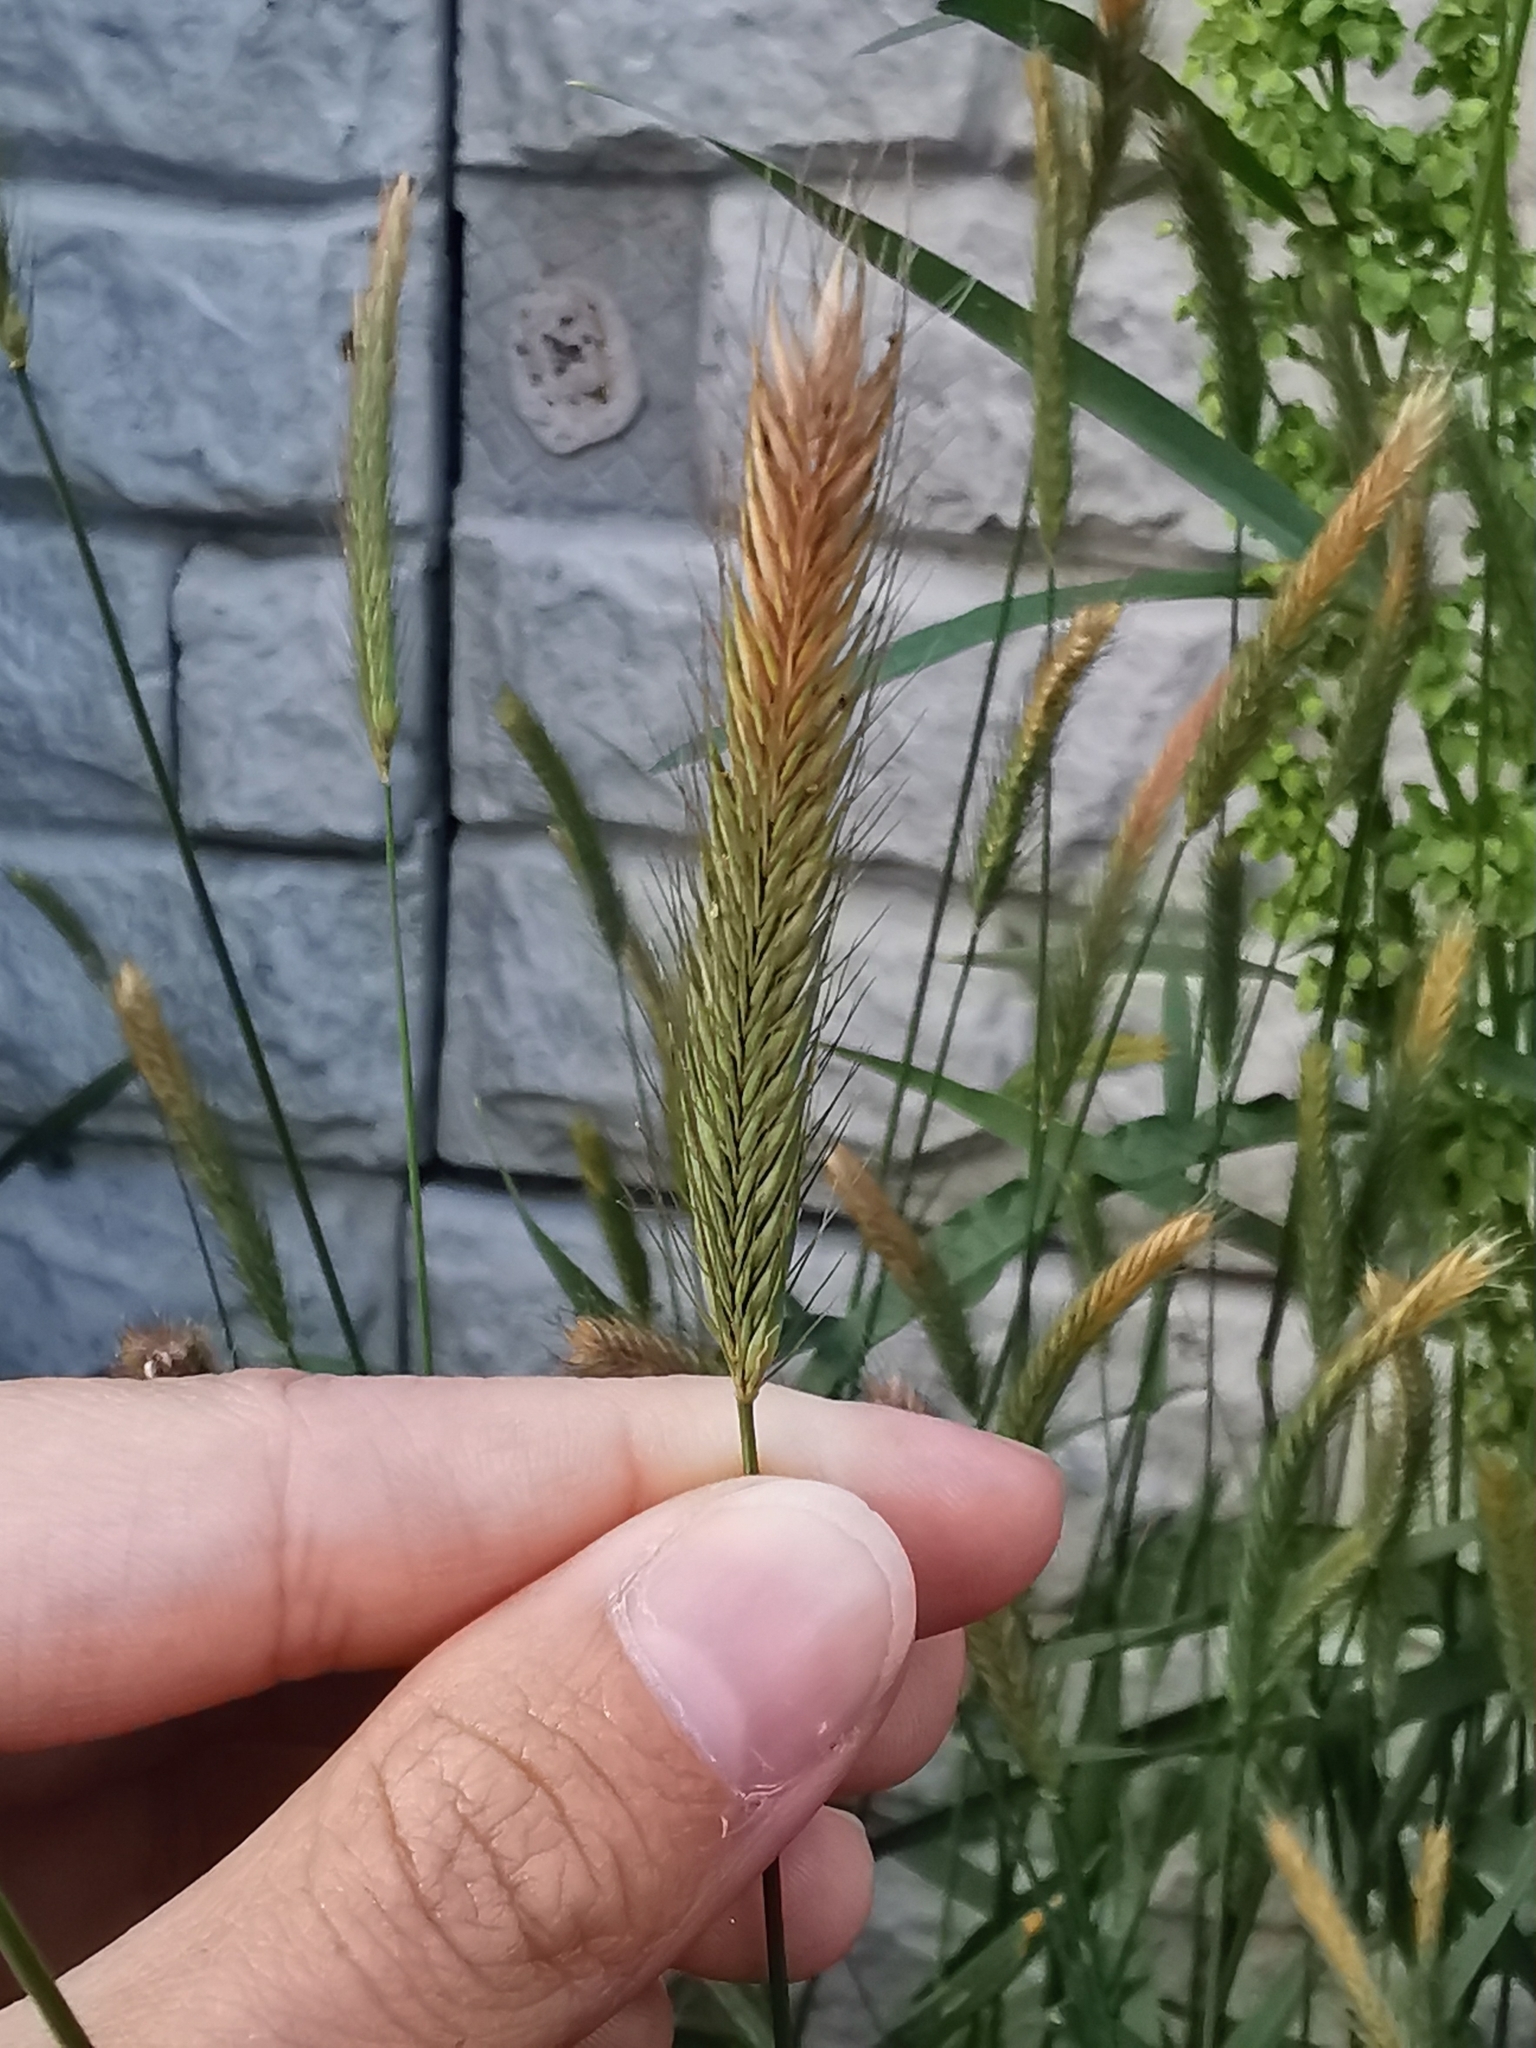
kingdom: Plantae
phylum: Tracheophyta
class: Liliopsida
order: Poales
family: Poaceae
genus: Hordeum
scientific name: Hordeum brachyantherum
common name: Meadow barley
